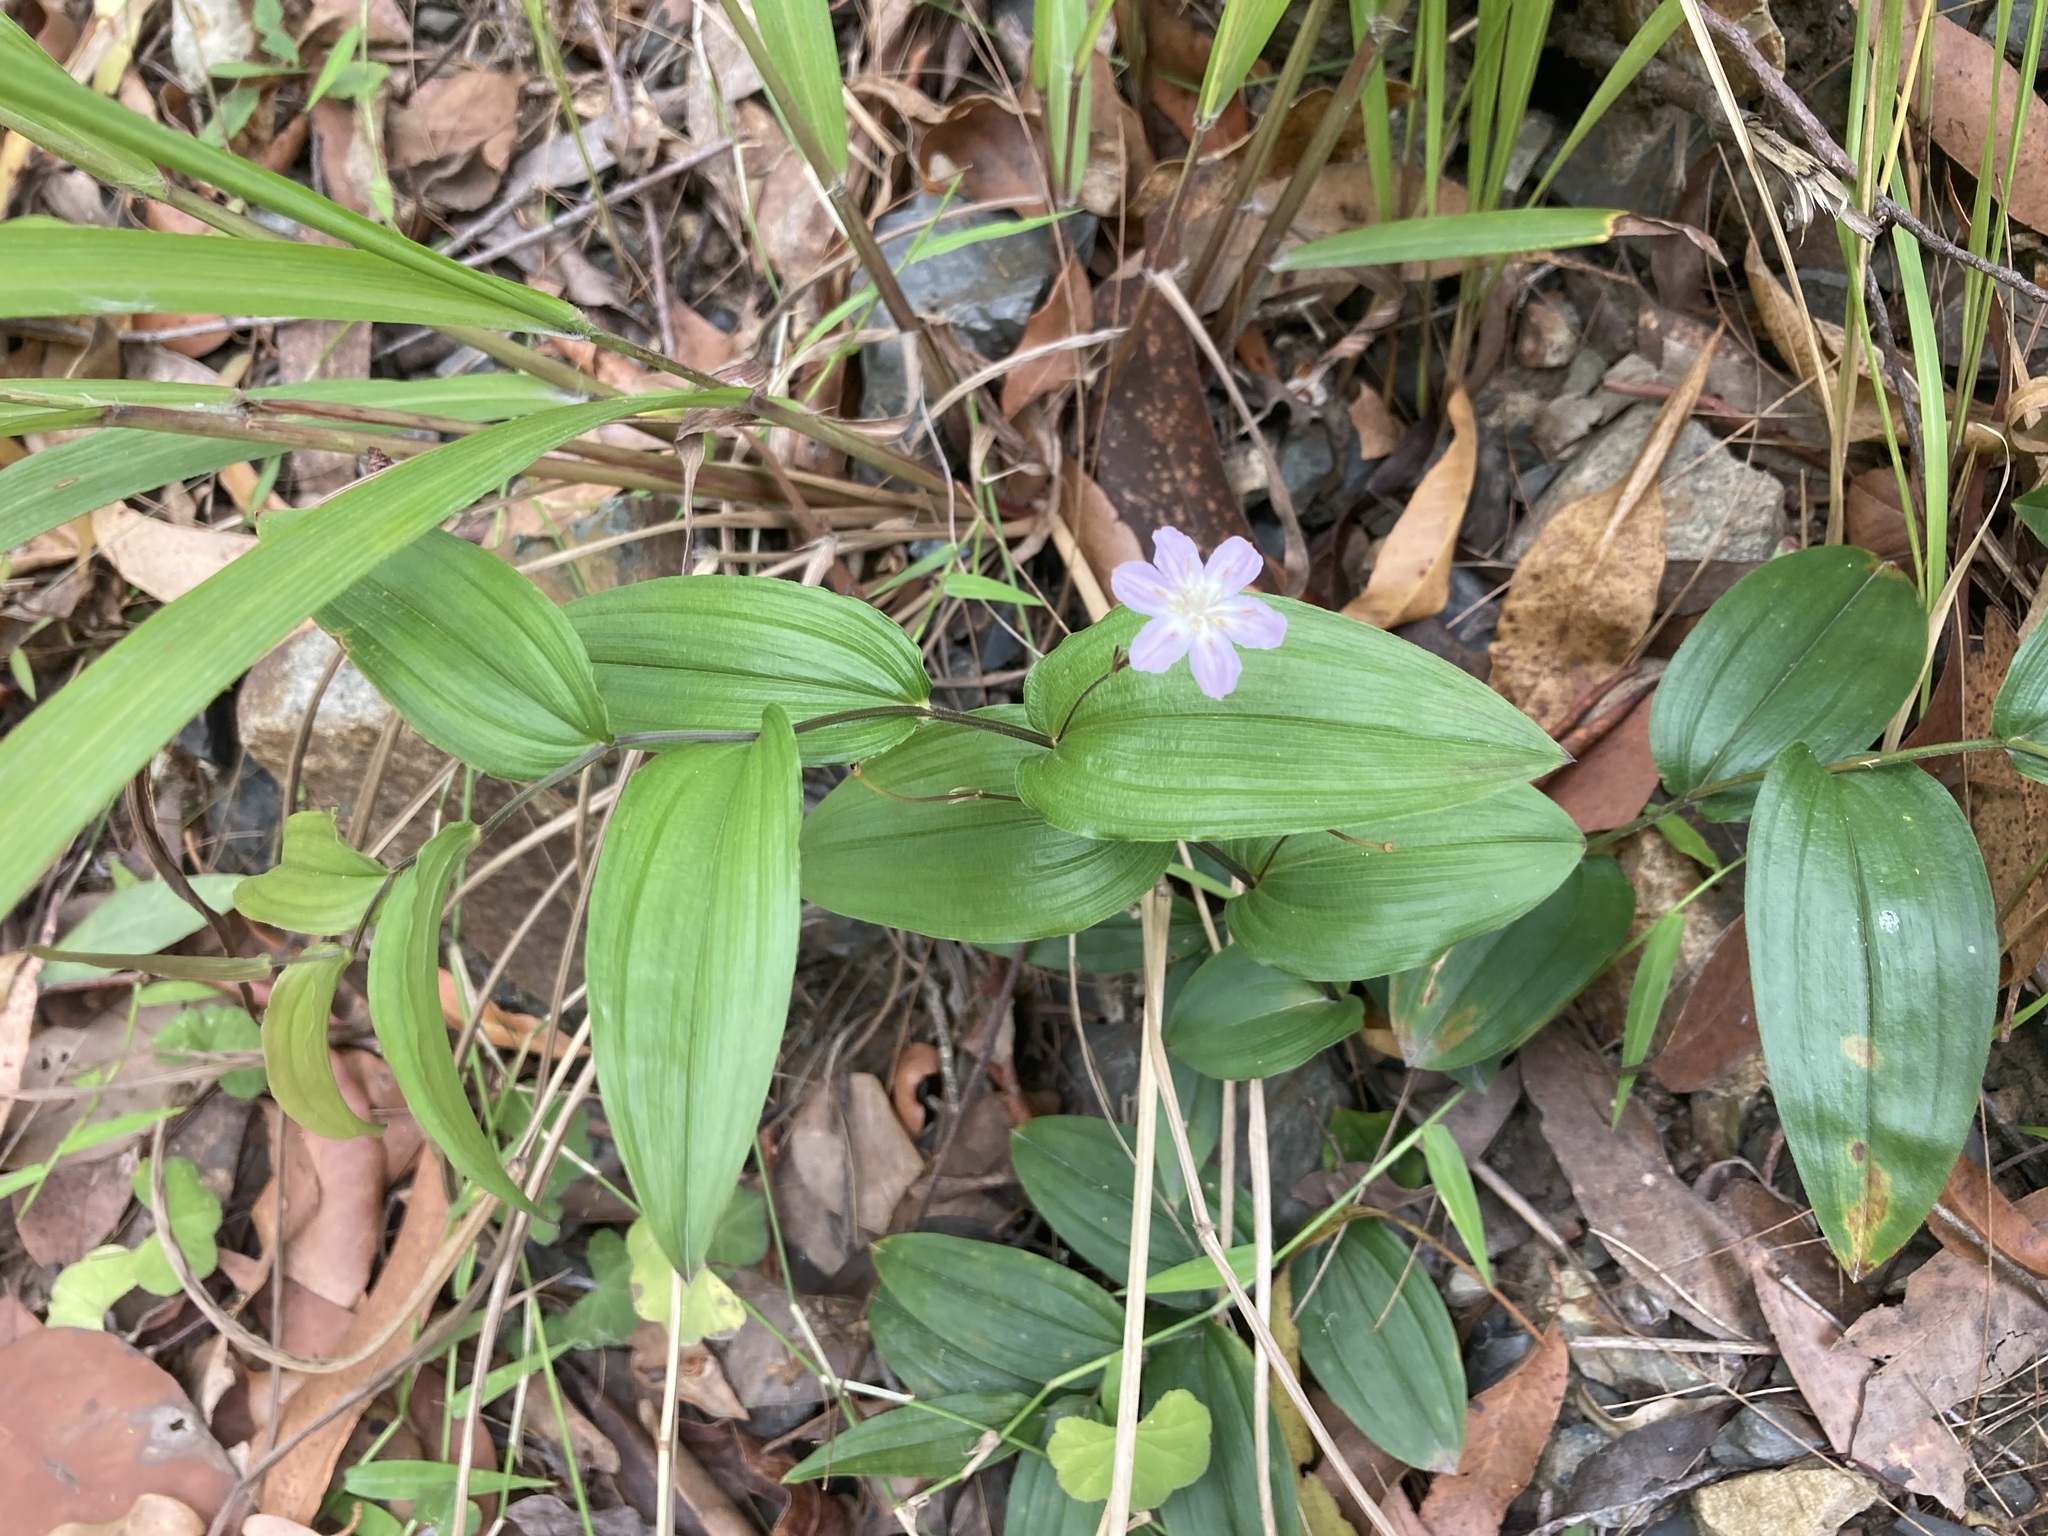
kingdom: Plantae
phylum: Tracheophyta
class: Liliopsida
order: Liliales
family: Colchicaceae
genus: Tripladenia
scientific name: Tripladenia cunninghamii
